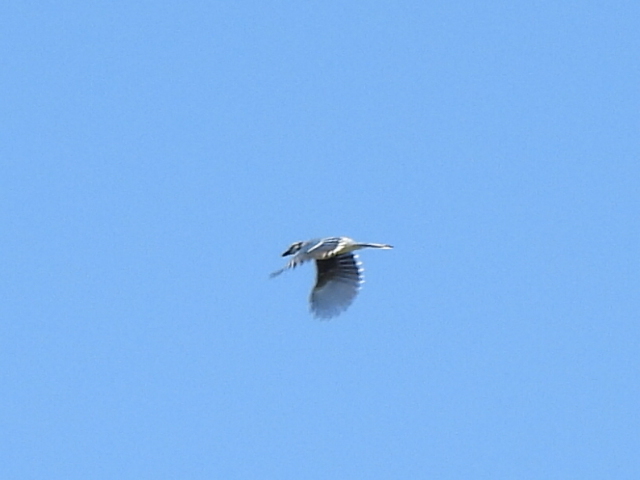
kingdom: Animalia
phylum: Chordata
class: Aves
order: Passeriformes
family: Corvidae
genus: Cyanocitta
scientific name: Cyanocitta cristata
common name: Blue jay
